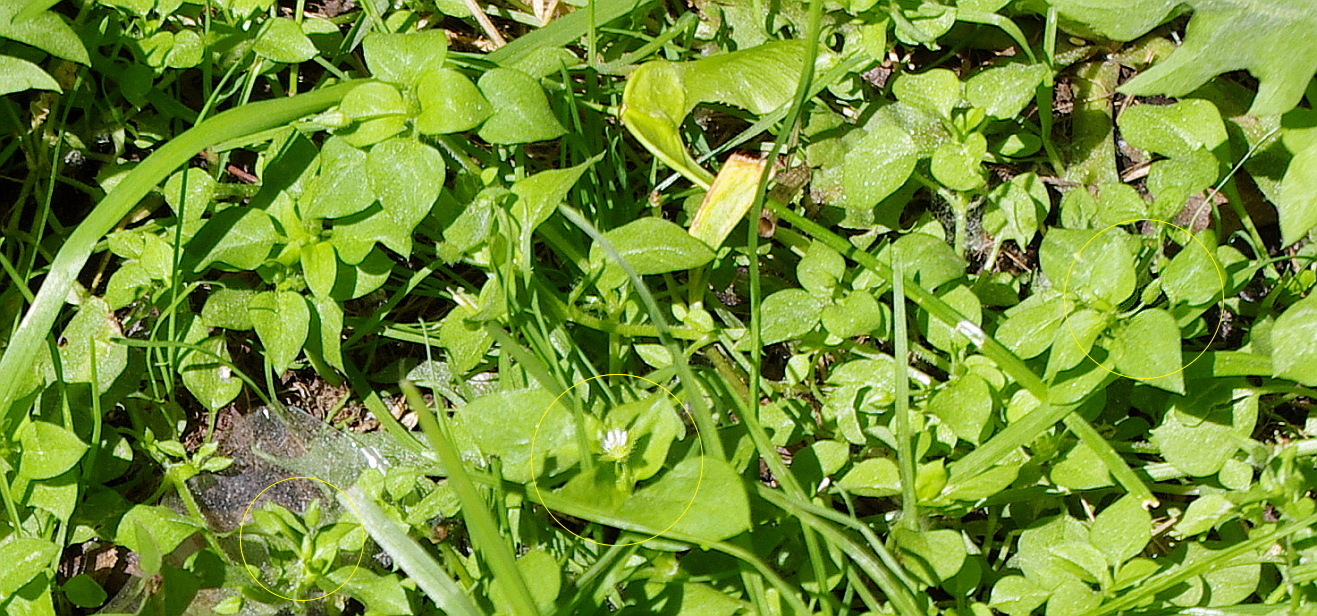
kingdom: Plantae
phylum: Tracheophyta
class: Magnoliopsida
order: Caryophyllales
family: Caryophyllaceae
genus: Stellaria
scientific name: Stellaria media
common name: Common chickweed
